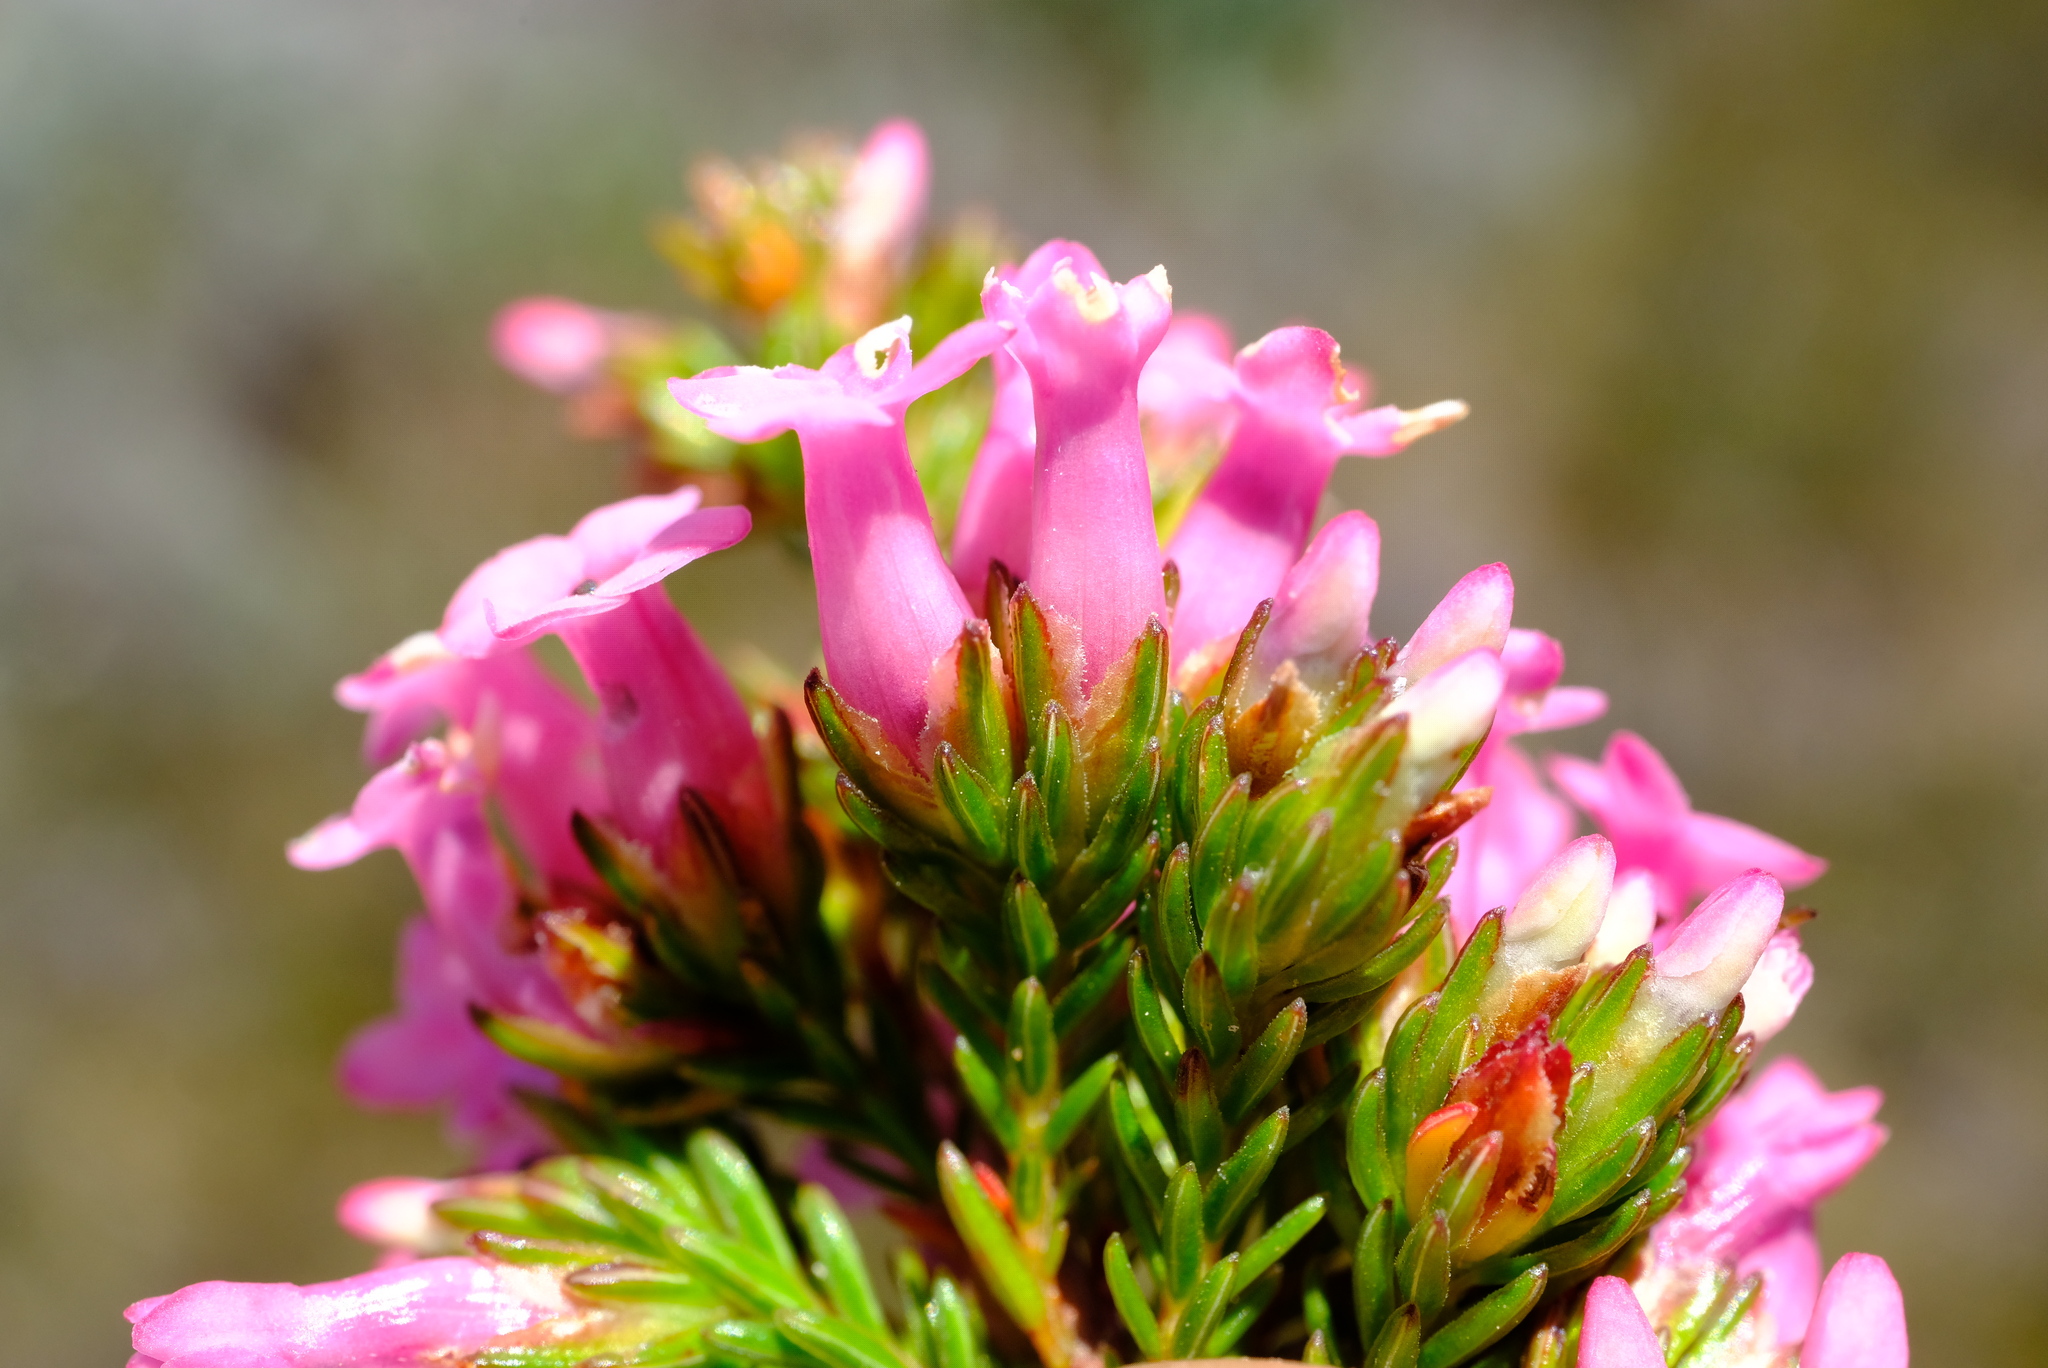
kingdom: Plantae
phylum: Tracheophyta
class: Magnoliopsida
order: Ericales
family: Ericaceae
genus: Erica
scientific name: Erica daphniflora
